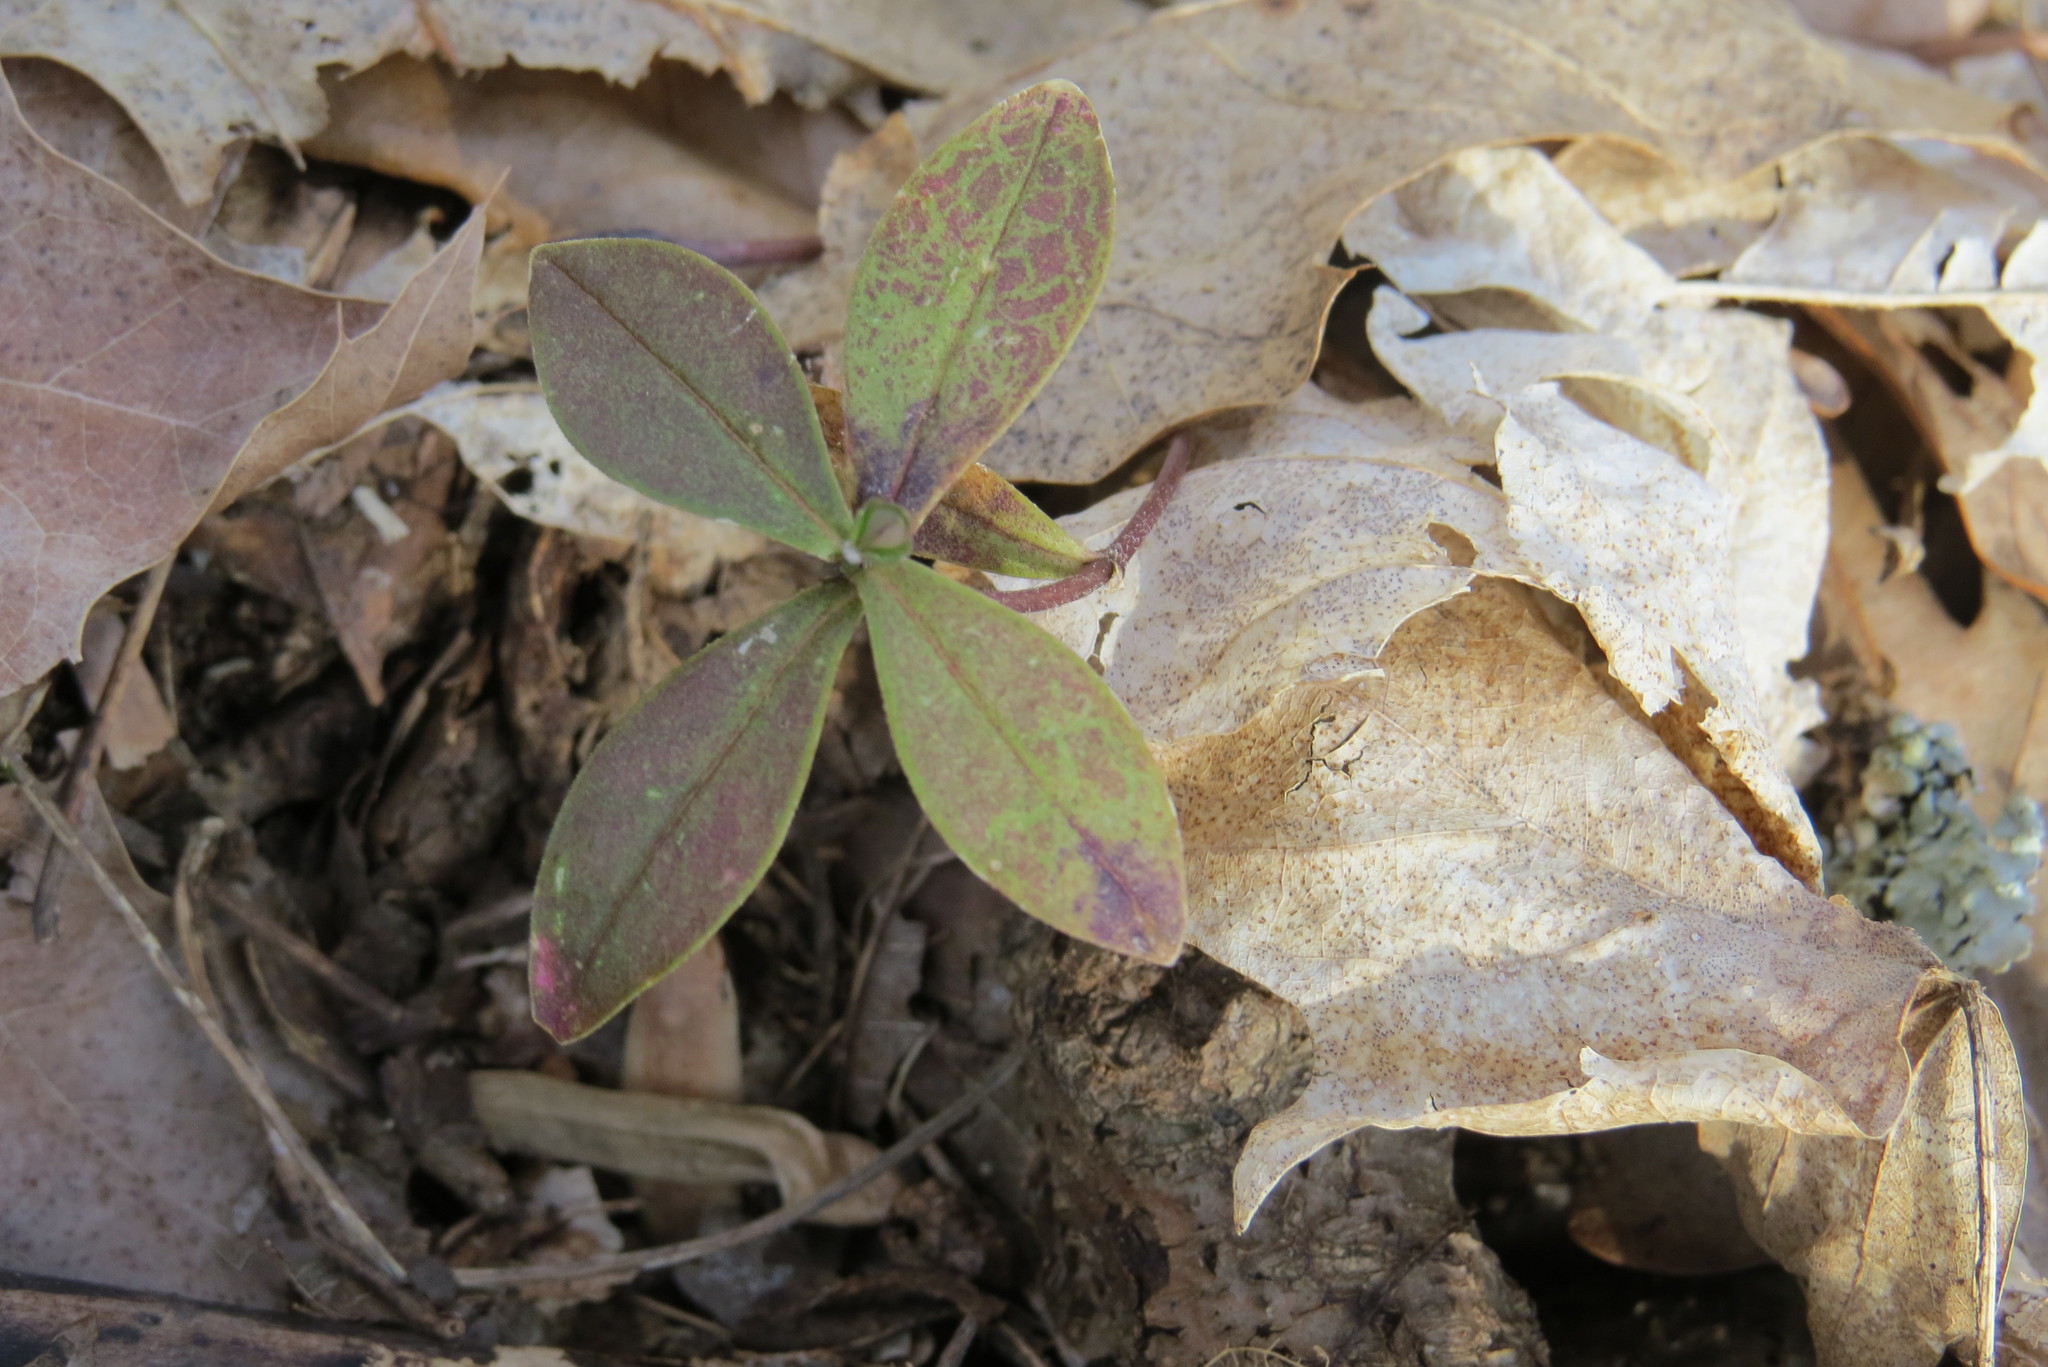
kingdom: Plantae
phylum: Tracheophyta
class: Magnoliopsida
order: Ericales
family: Polemoniaceae
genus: Phlox
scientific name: Phlox divaricata
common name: Blue phlox
